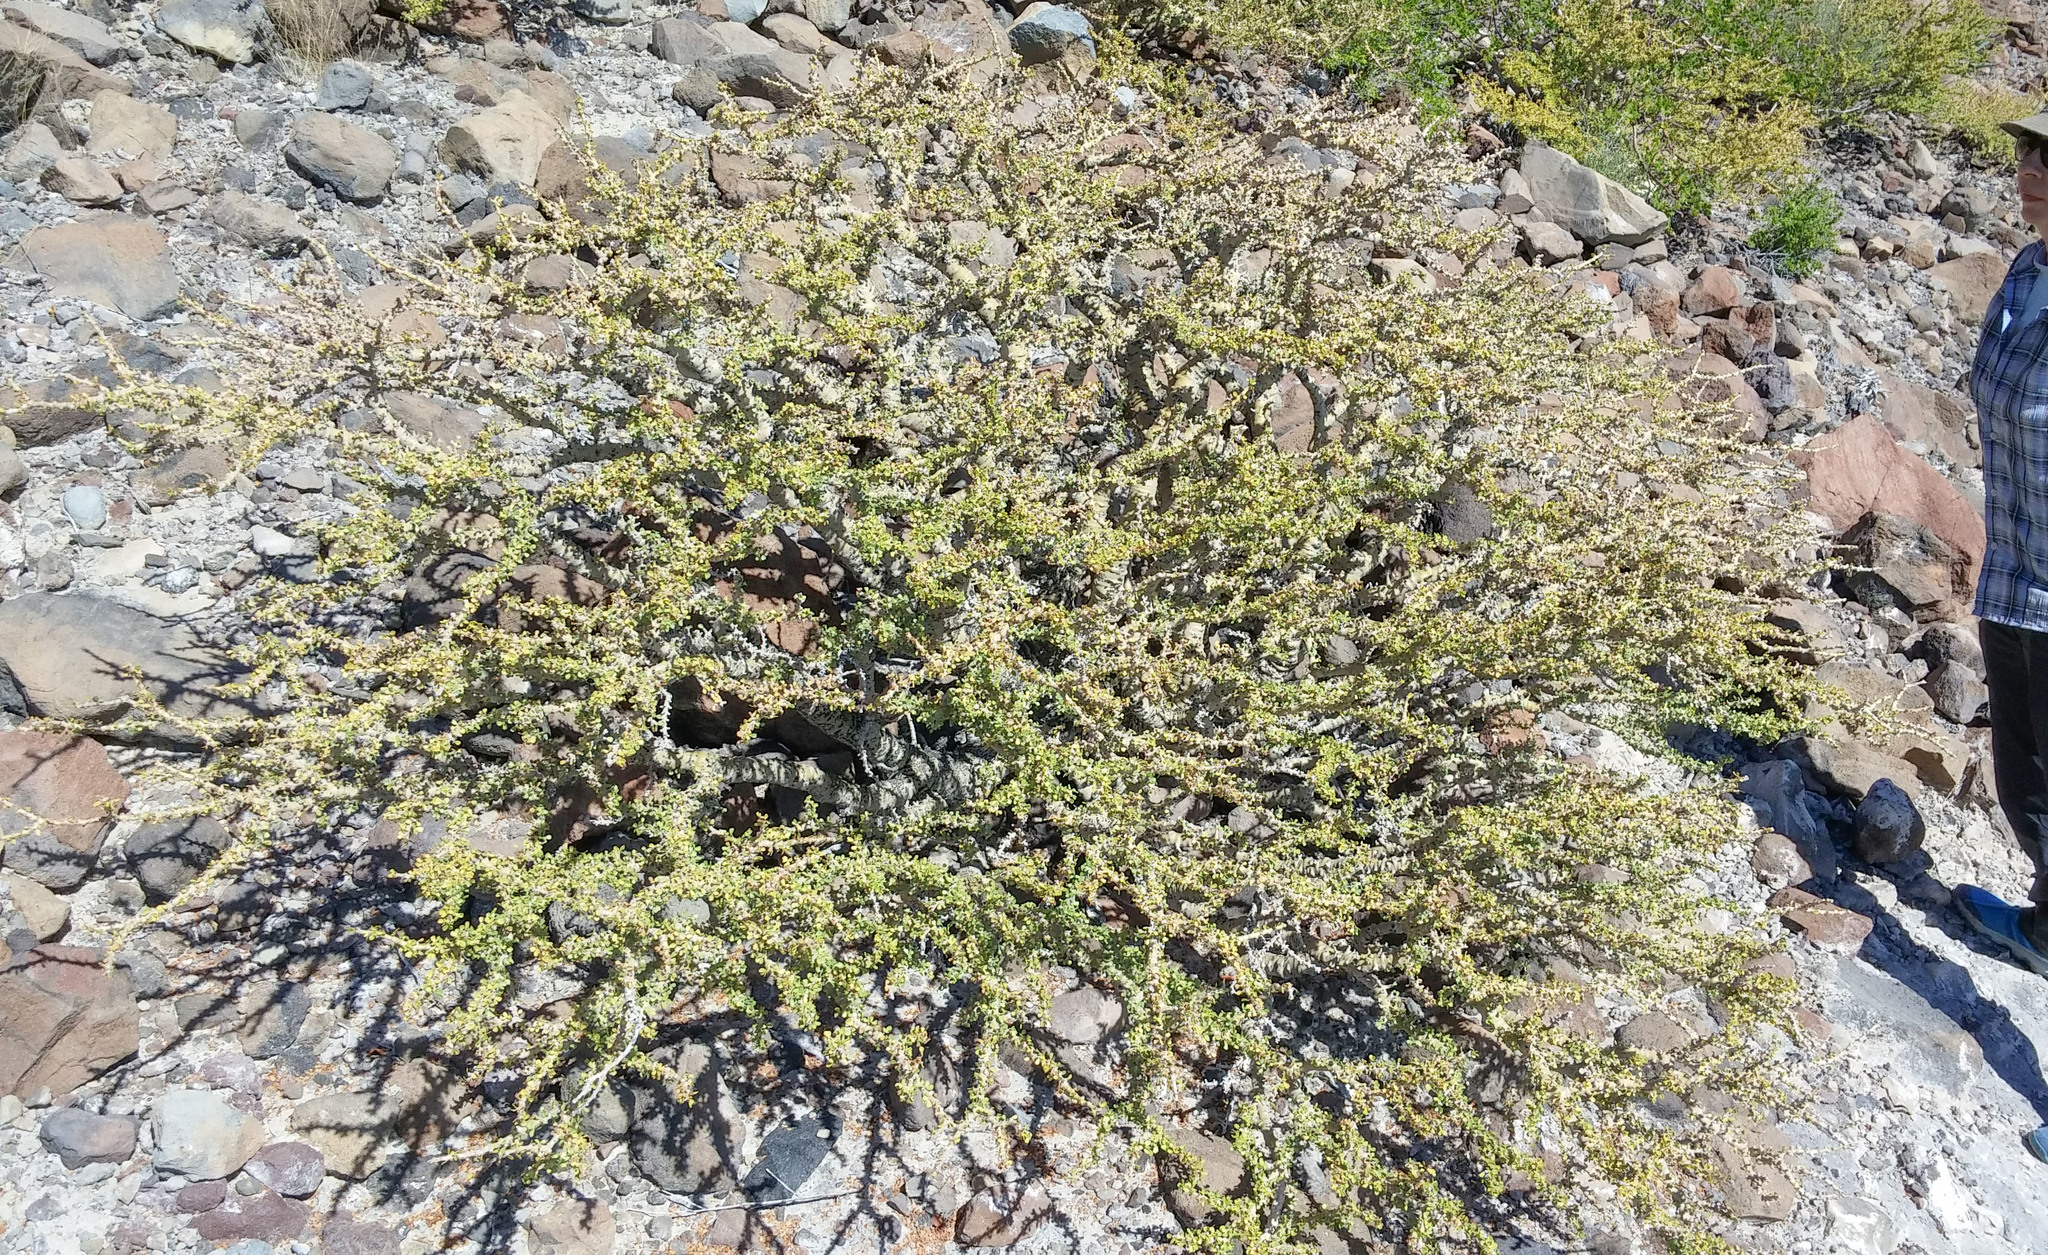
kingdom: Plantae
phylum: Tracheophyta
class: Magnoliopsida
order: Malpighiales
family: Euphorbiaceae
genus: Jatropha
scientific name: Jatropha cuneata
